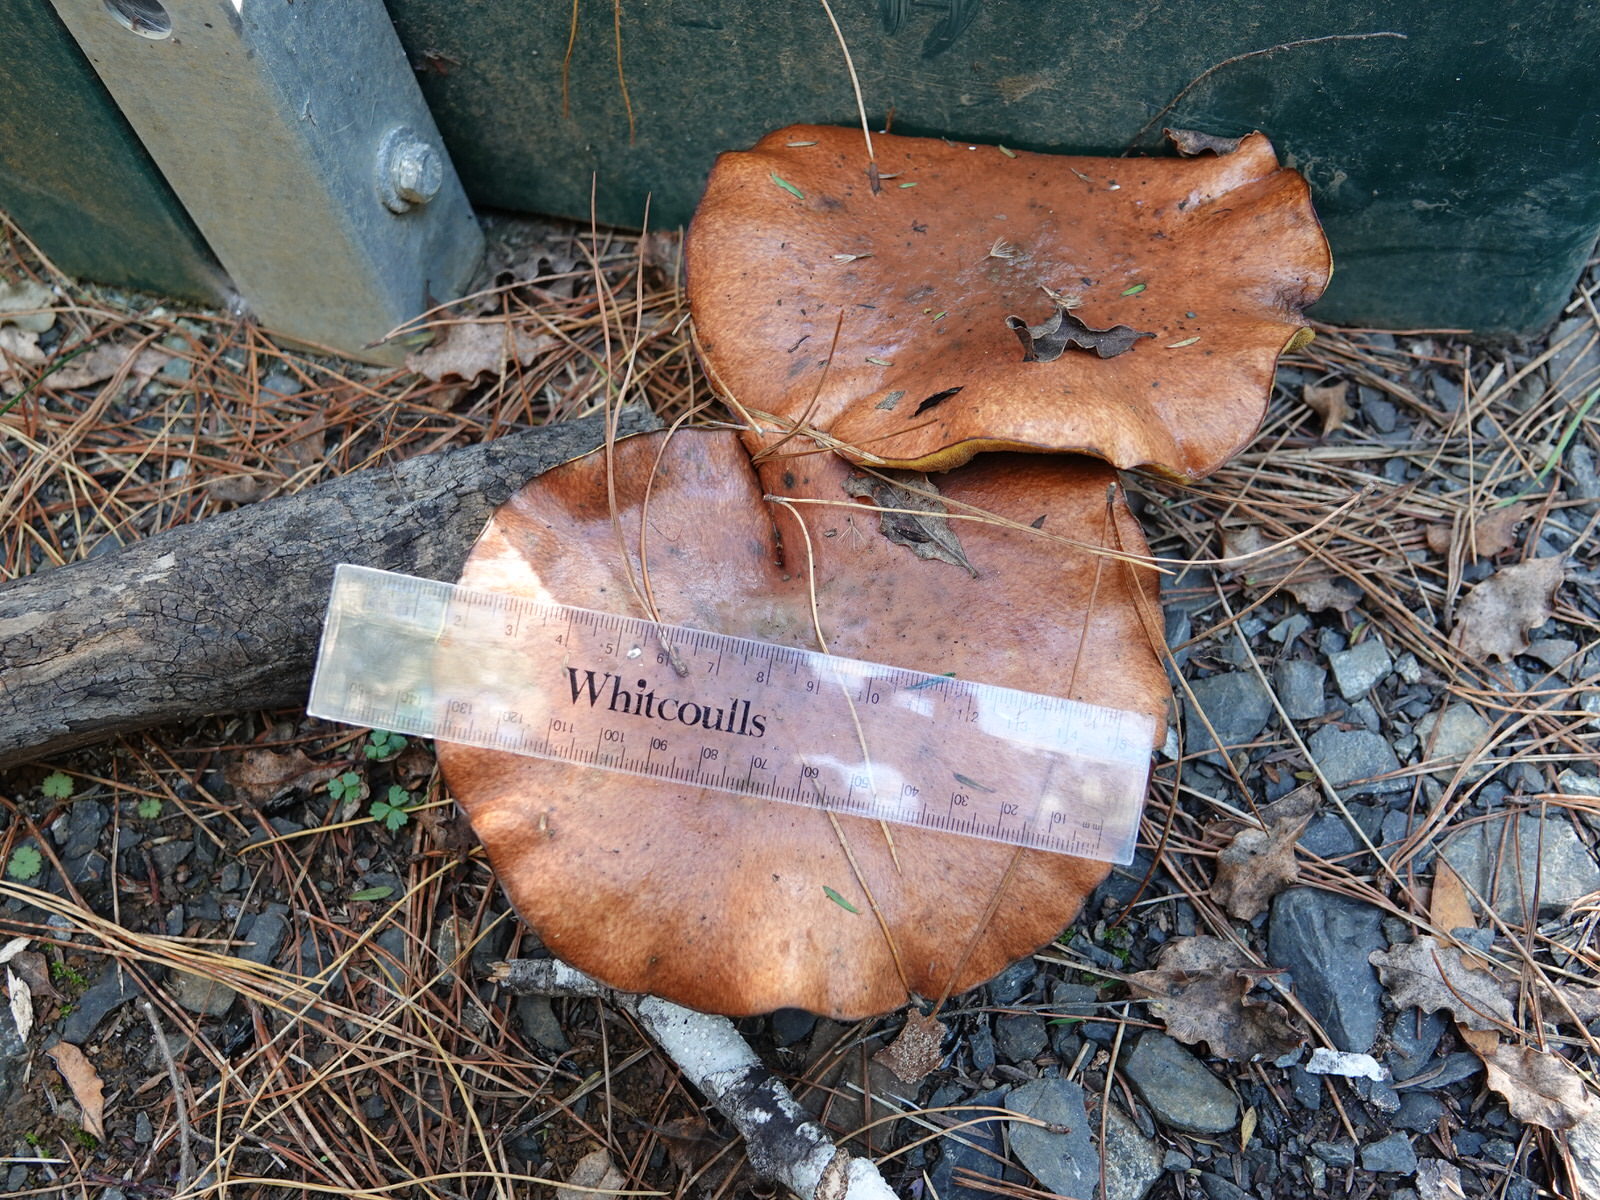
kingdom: Fungi
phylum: Basidiomycota
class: Agaricomycetes
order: Boletales
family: Suillaceae
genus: Suillus
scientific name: Suillus luteus
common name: Slippery jack
